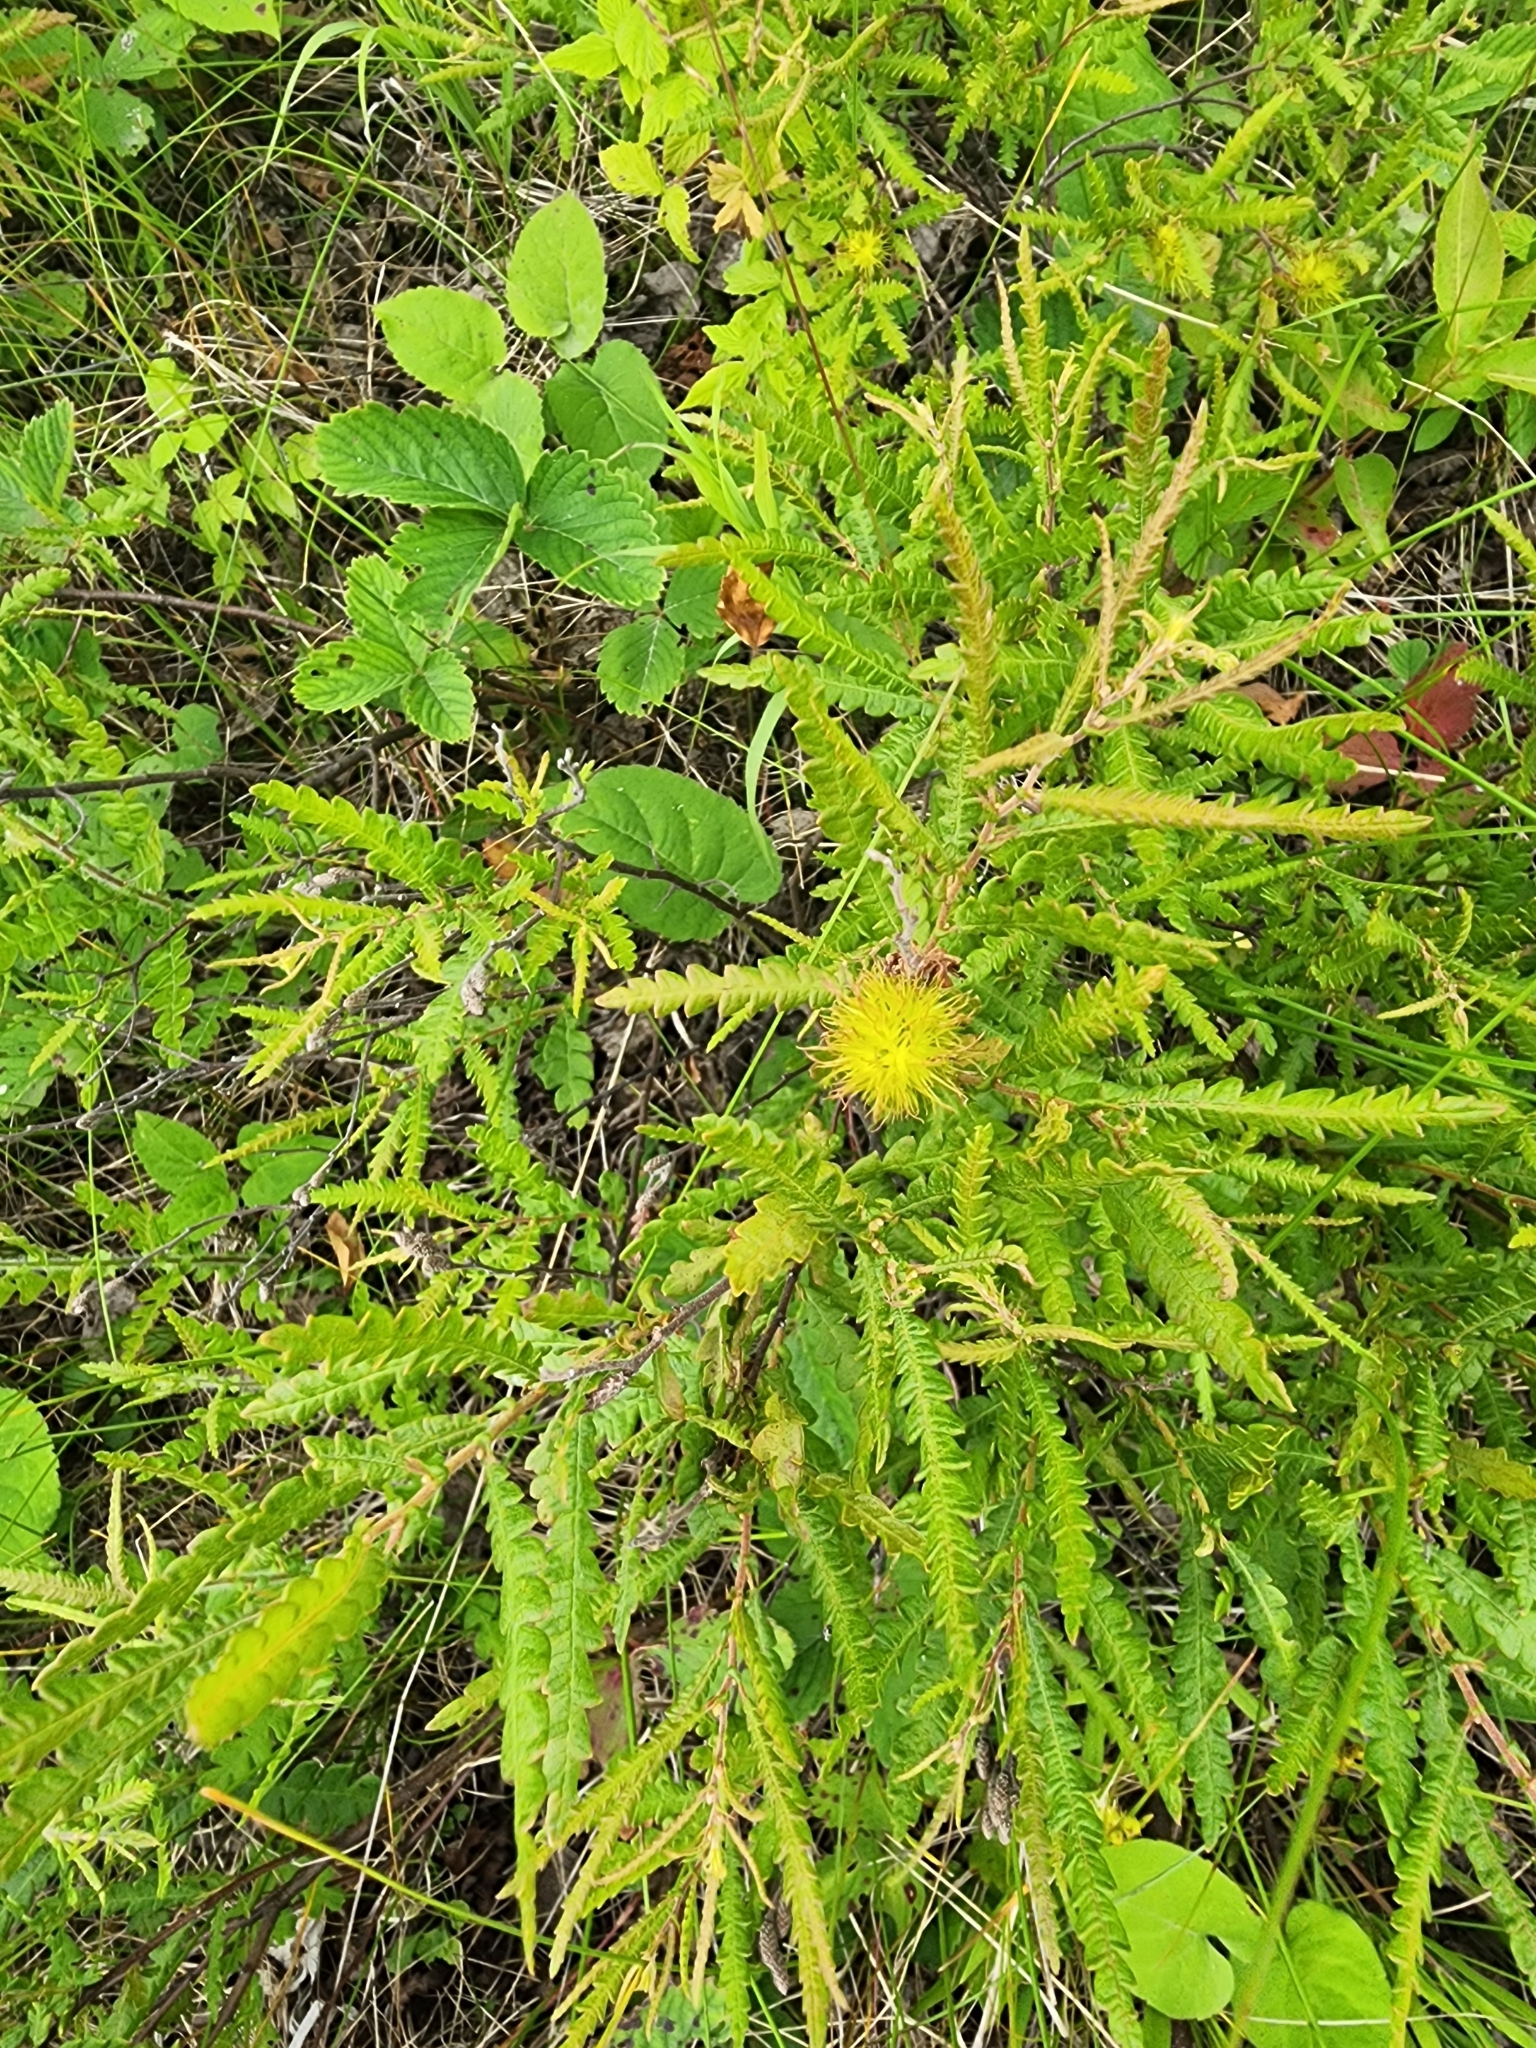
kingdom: Plantae
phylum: Tracheophyta
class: Magnoliopsida
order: Fagales
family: Myricaceae
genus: Comptonia
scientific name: Comptonia peregrina
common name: Sweet-fern
